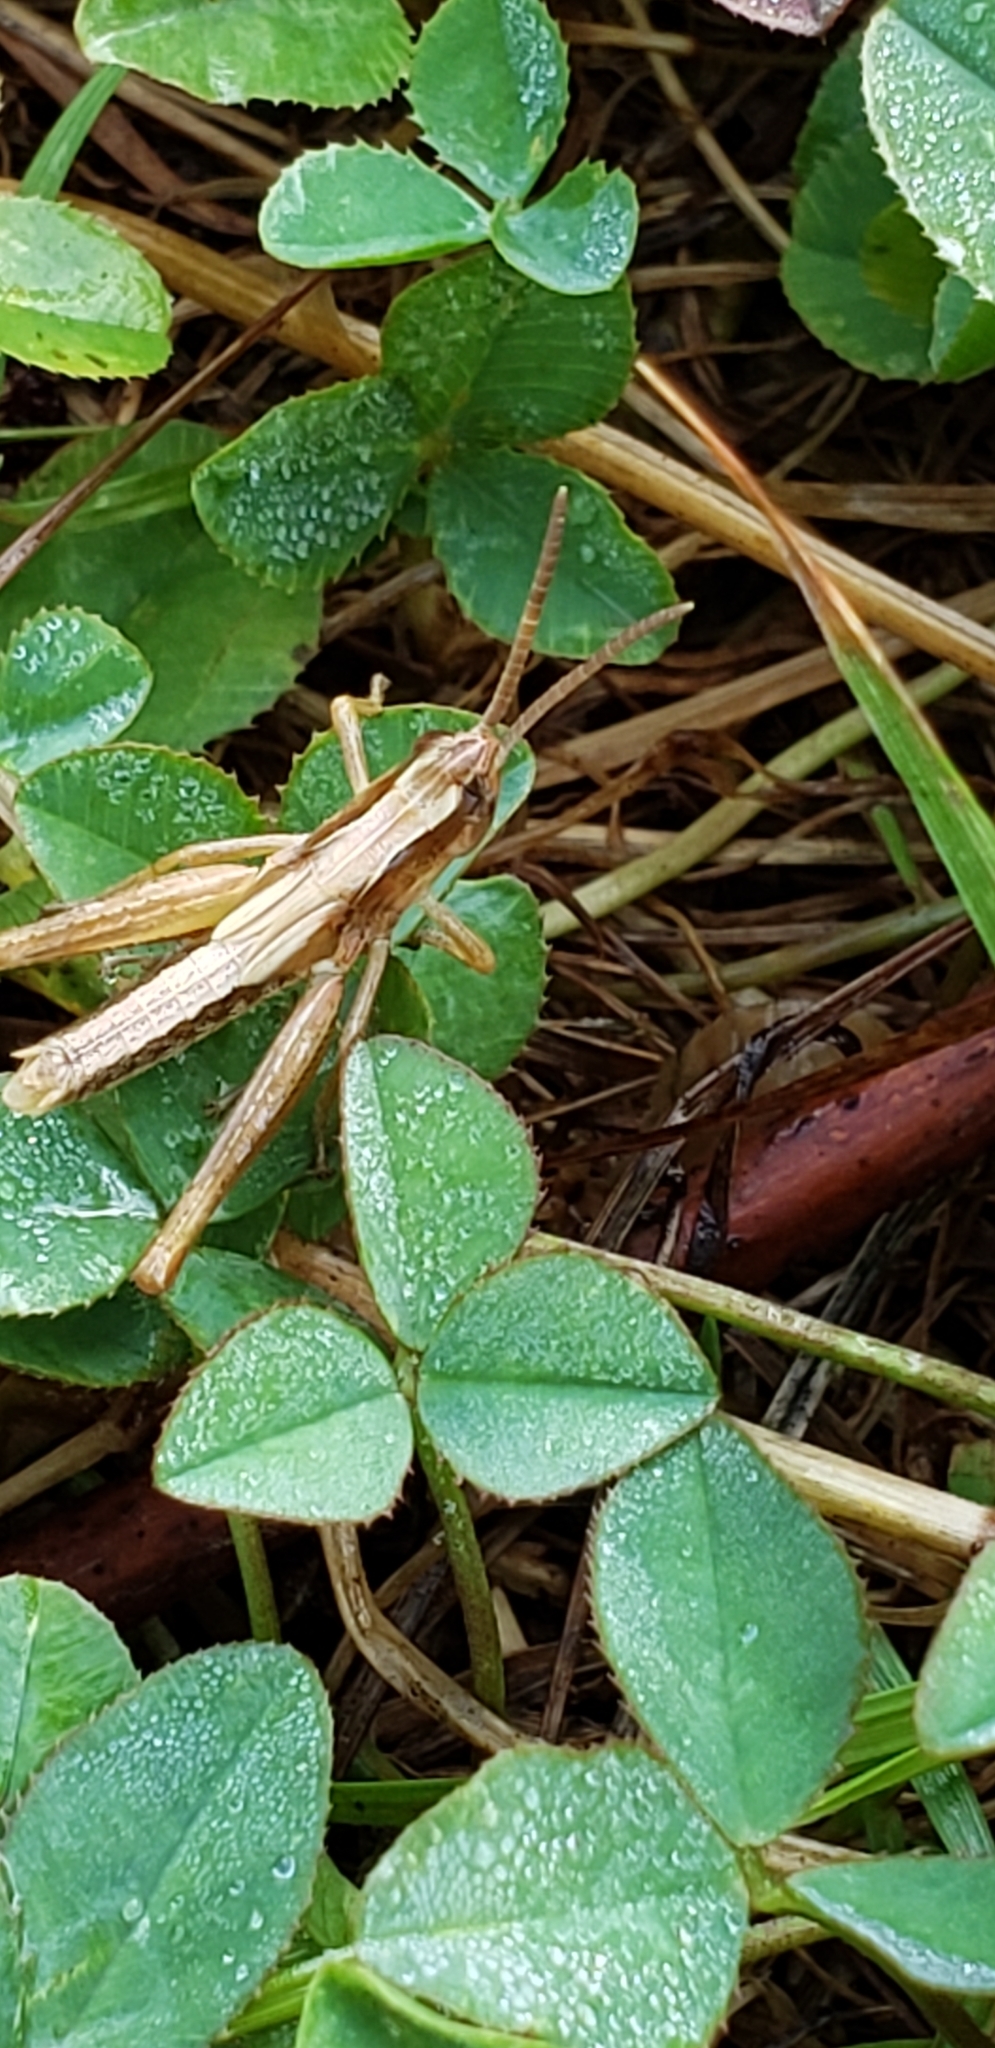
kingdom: Animalia
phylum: Arthropoda
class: Insecta
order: Orthoptera
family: Acrididae
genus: Pseudochorthippus
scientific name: Pseudochorthippus curtipennis
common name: Marsh meadow grasshopper
